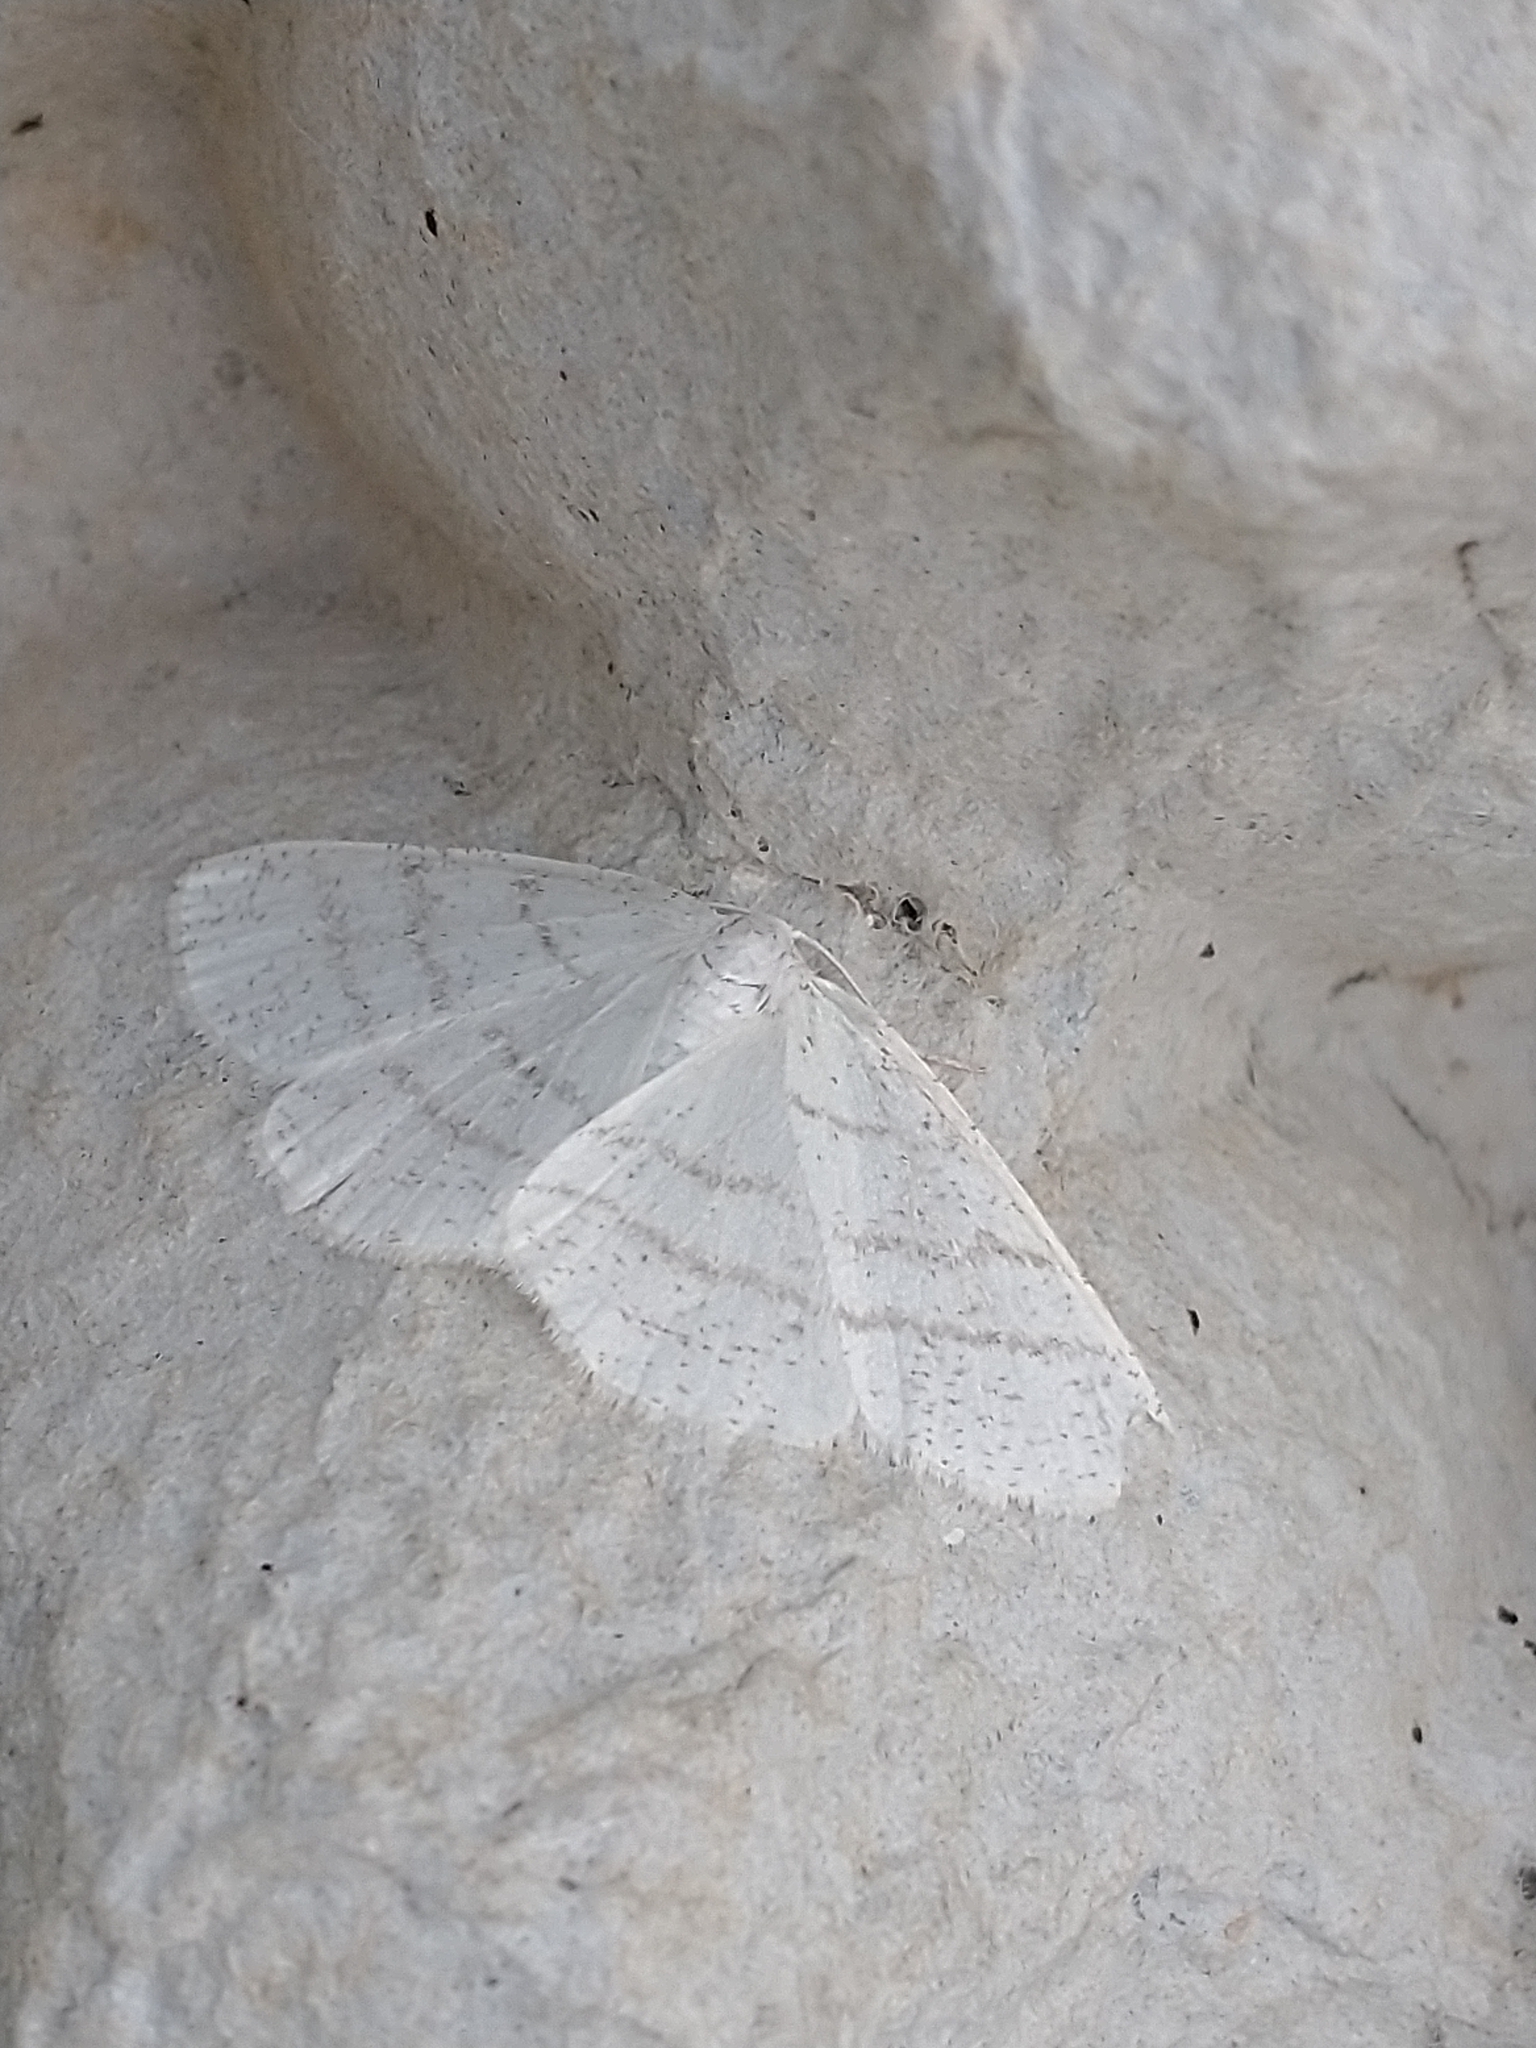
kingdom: Animalia
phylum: Arthropoda
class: Insecta
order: Lepidoptera
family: Geometridae
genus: Cabera
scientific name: Cabera pusaria
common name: Common white wave
